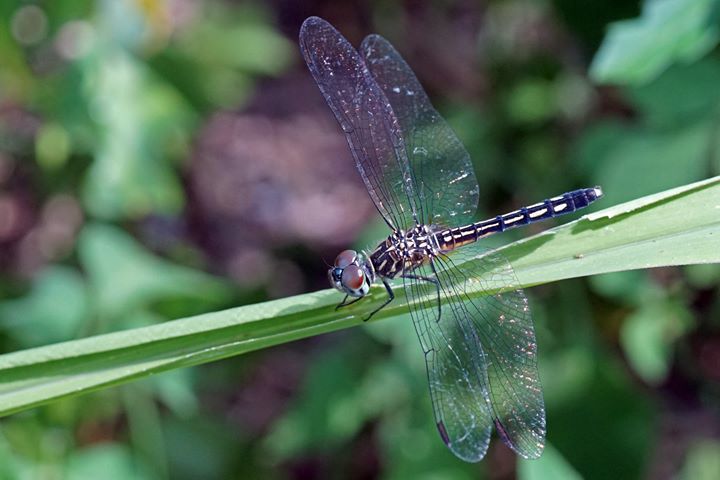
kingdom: Animalia
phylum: Arthropoda
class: Insecta
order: Odonata
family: Libellulidae
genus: Pachydiplax
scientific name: Pachydiplax longipennis
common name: Blue dasher
